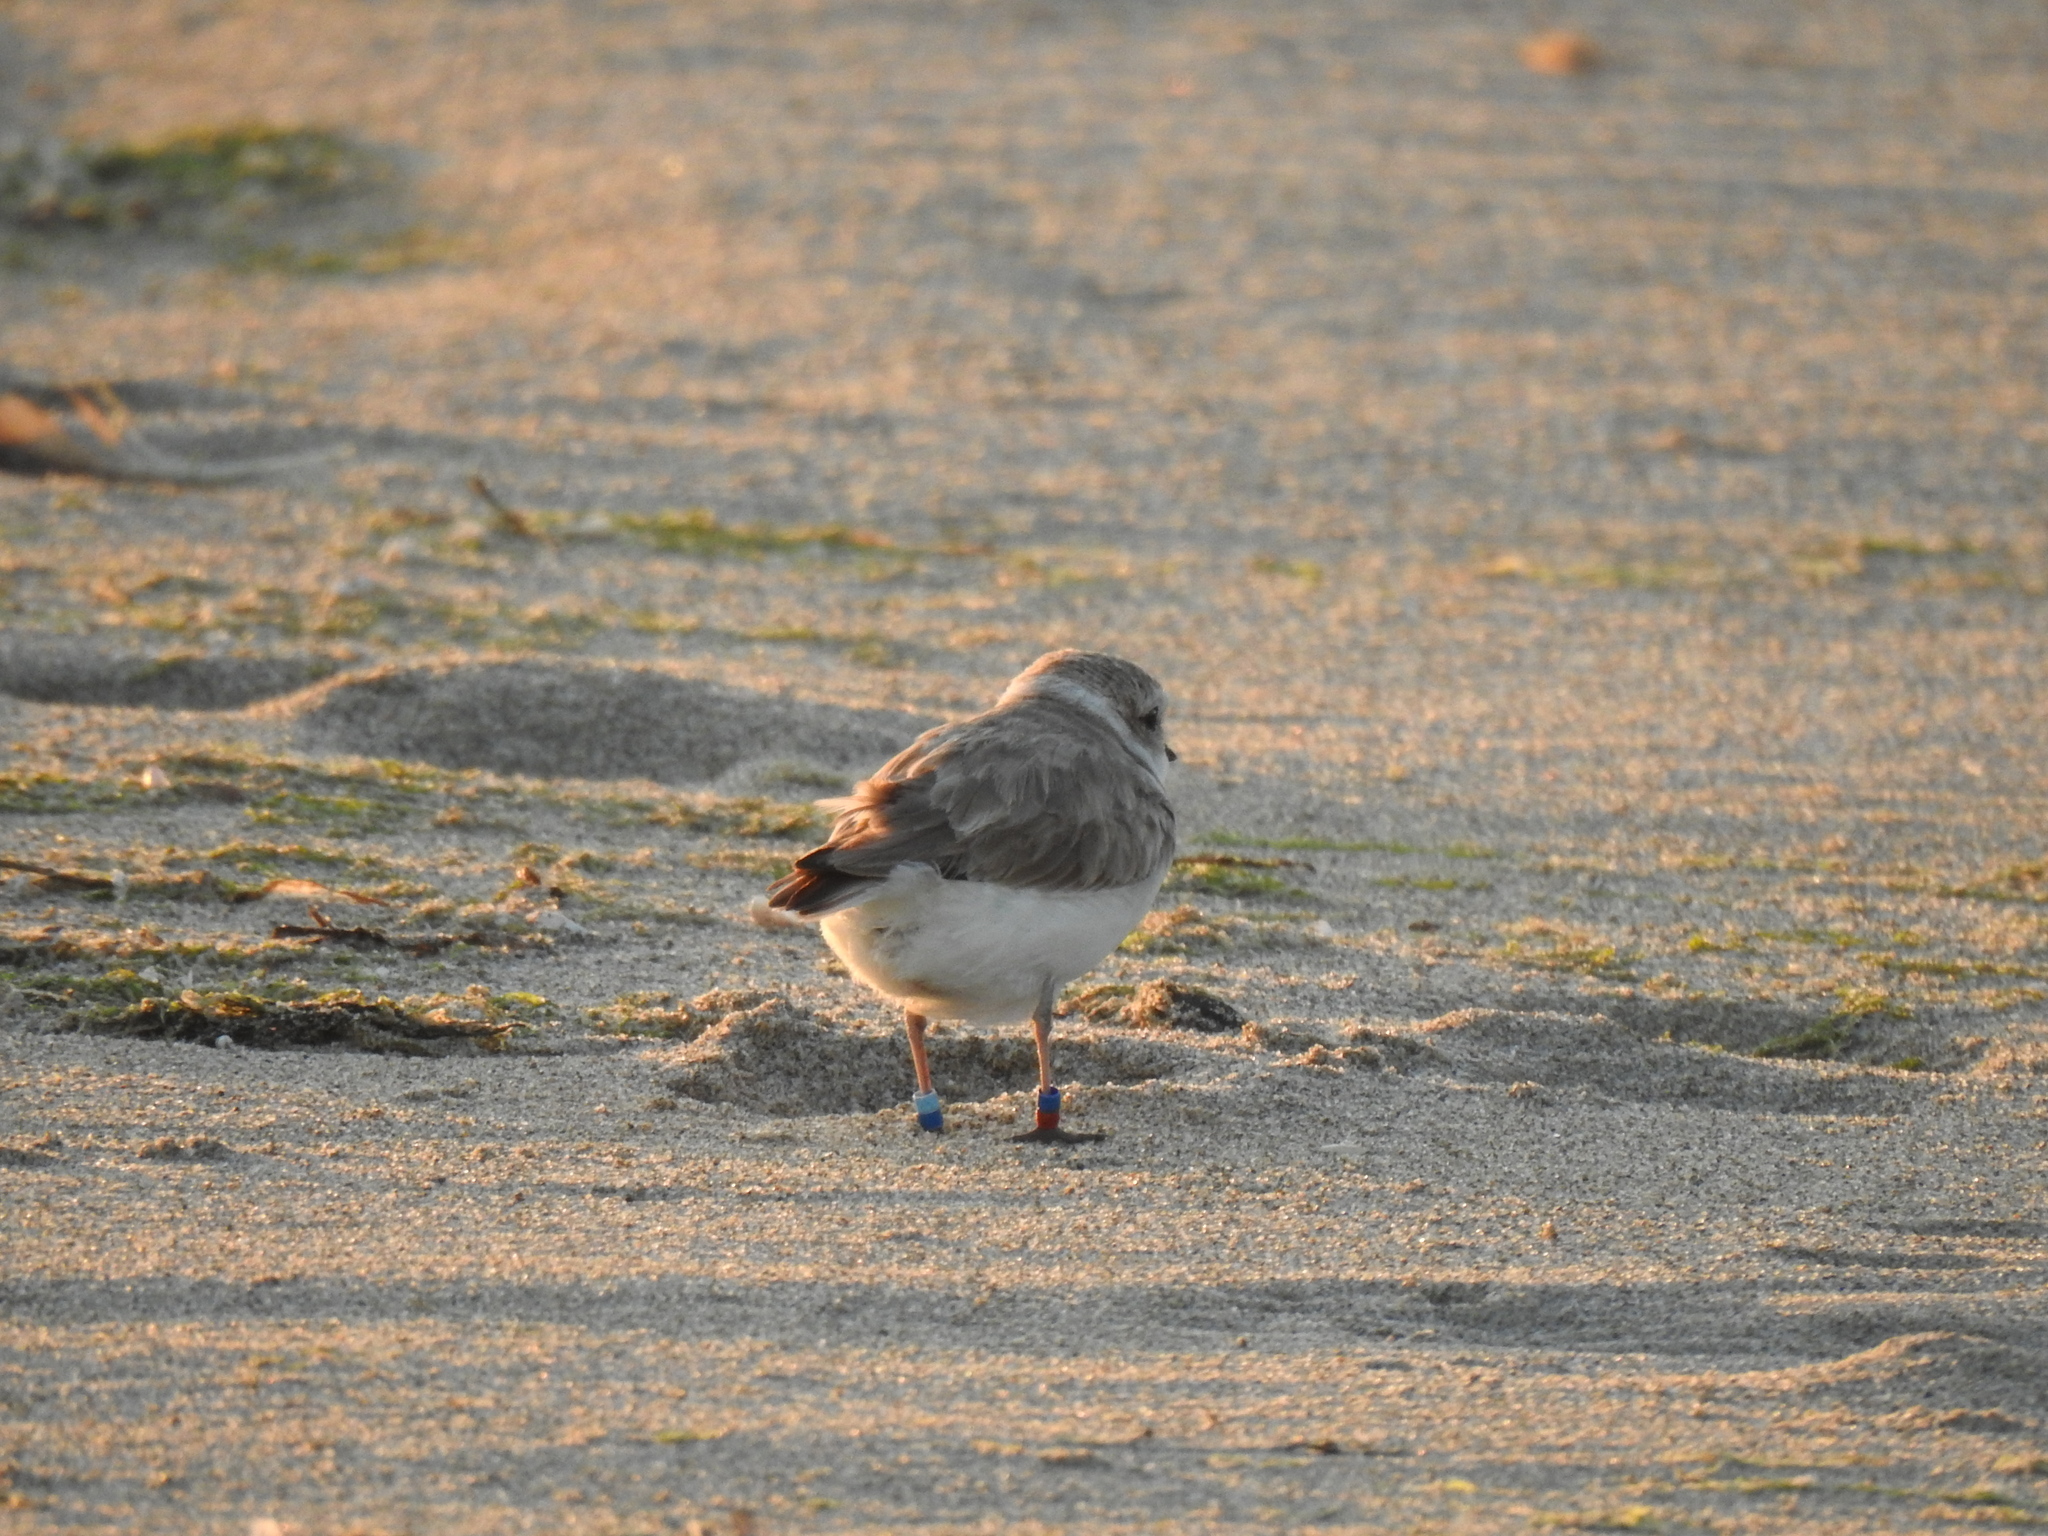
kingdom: Animalia
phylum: Chordata
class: Aves
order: Charadriiformes
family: Charadriidae
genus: Anarhynchus
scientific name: Anarhynchus
